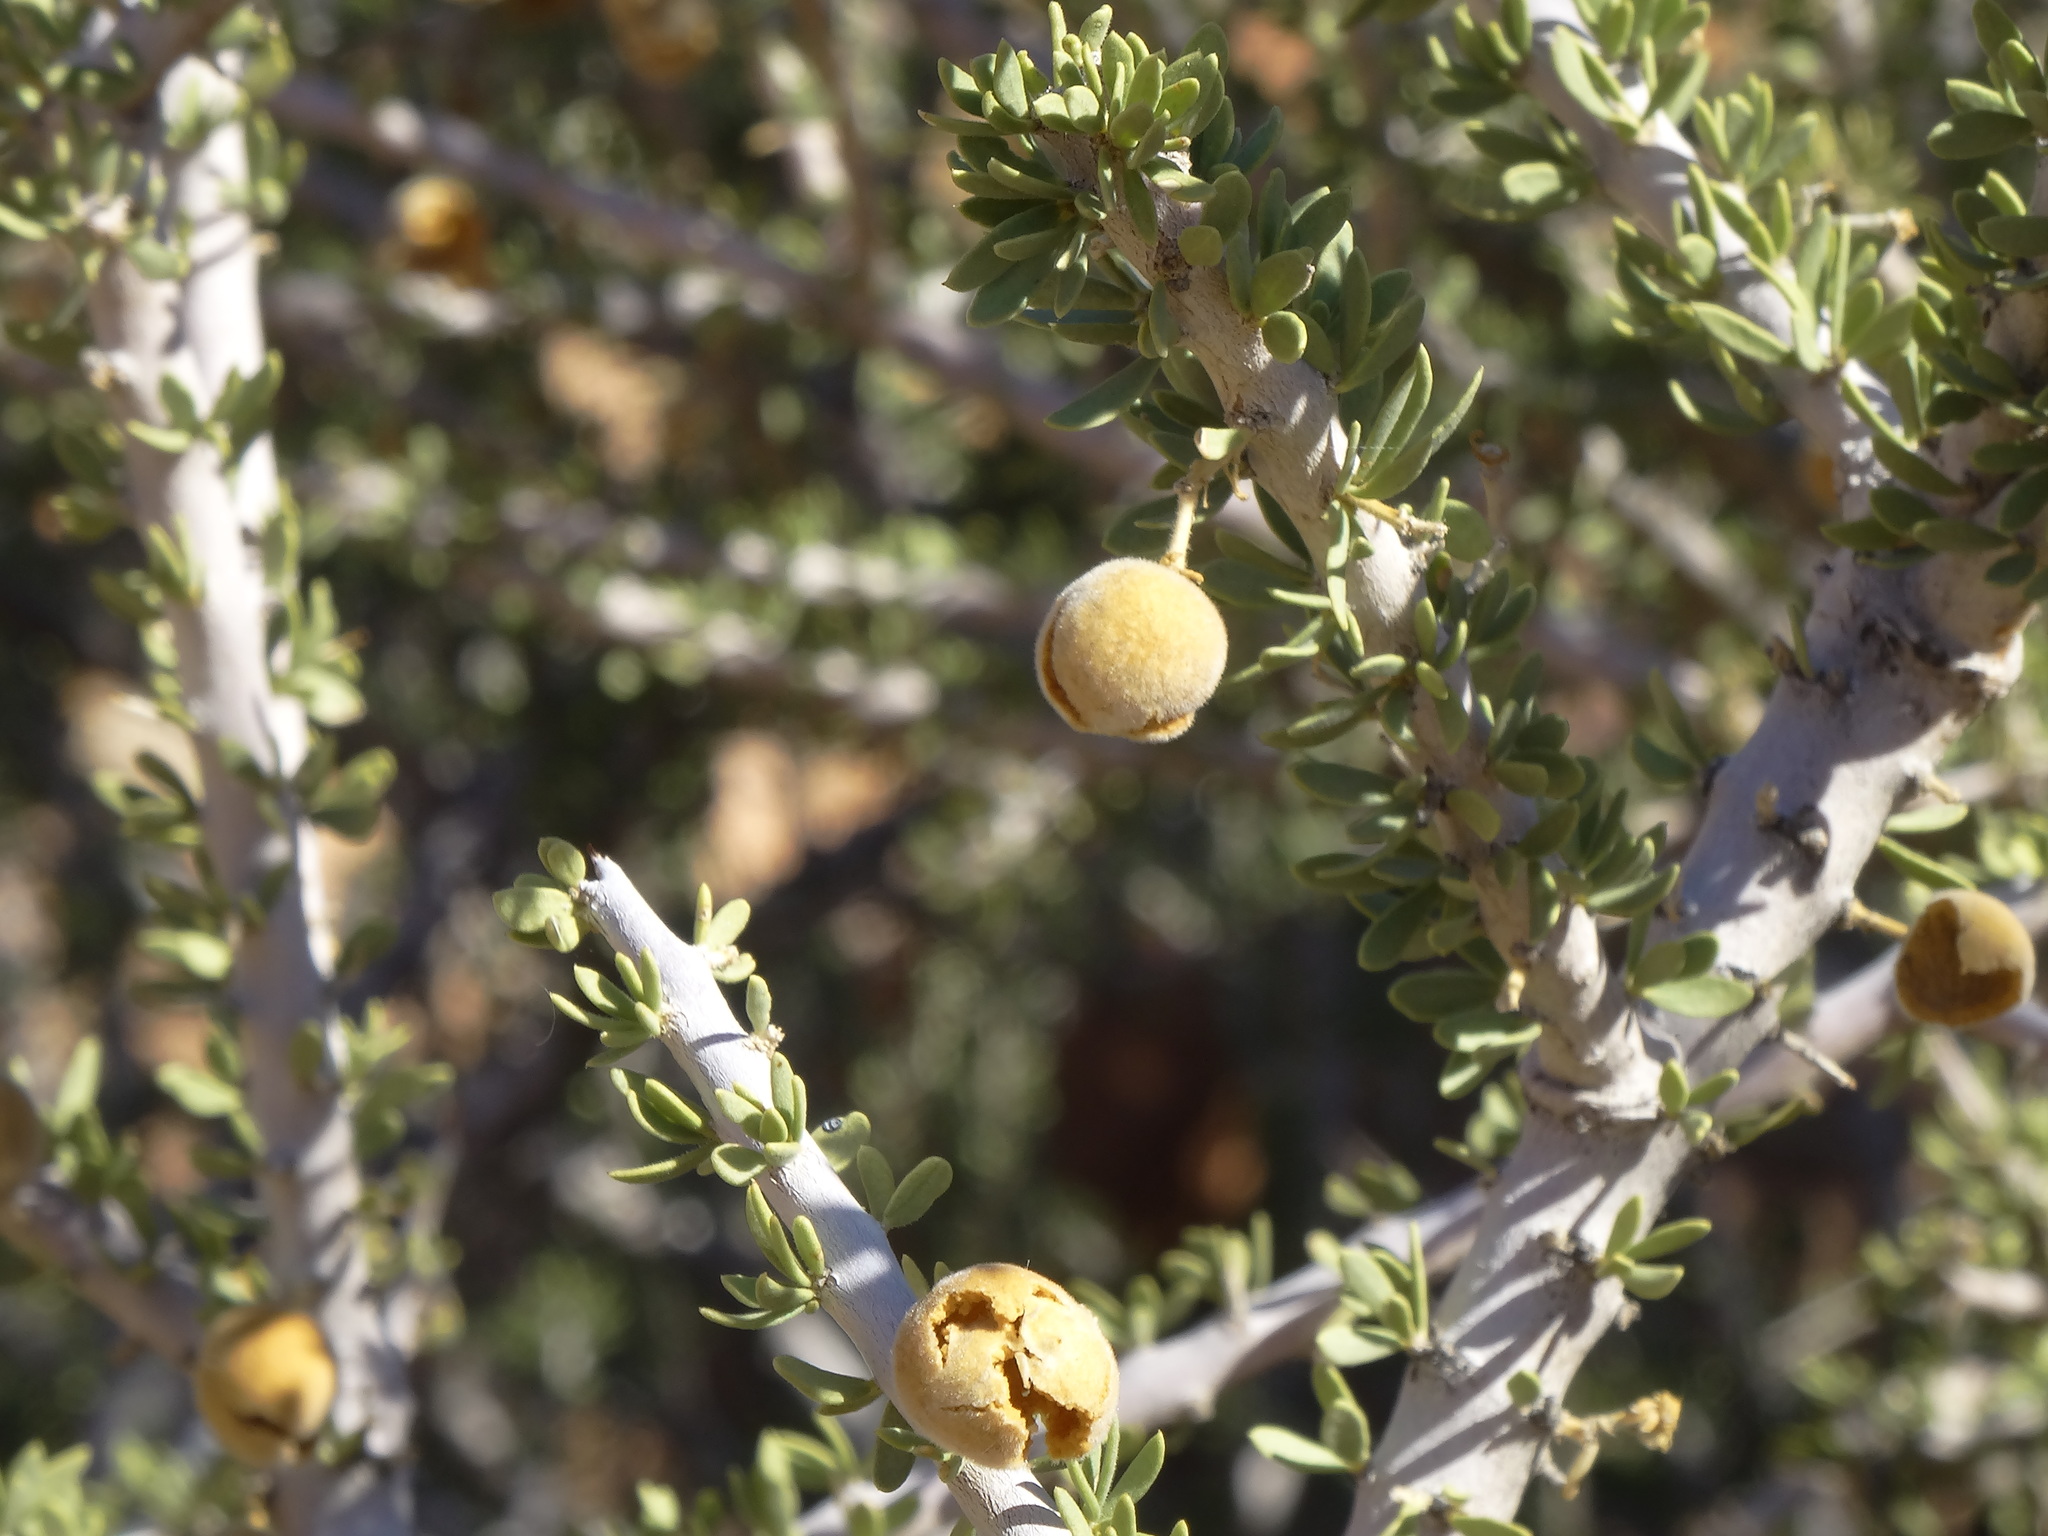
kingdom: Plantae
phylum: Tracheophyta
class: Magnoliopsida
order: Brassicales
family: Capparaceae
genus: Boscia
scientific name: Boscia foetida
